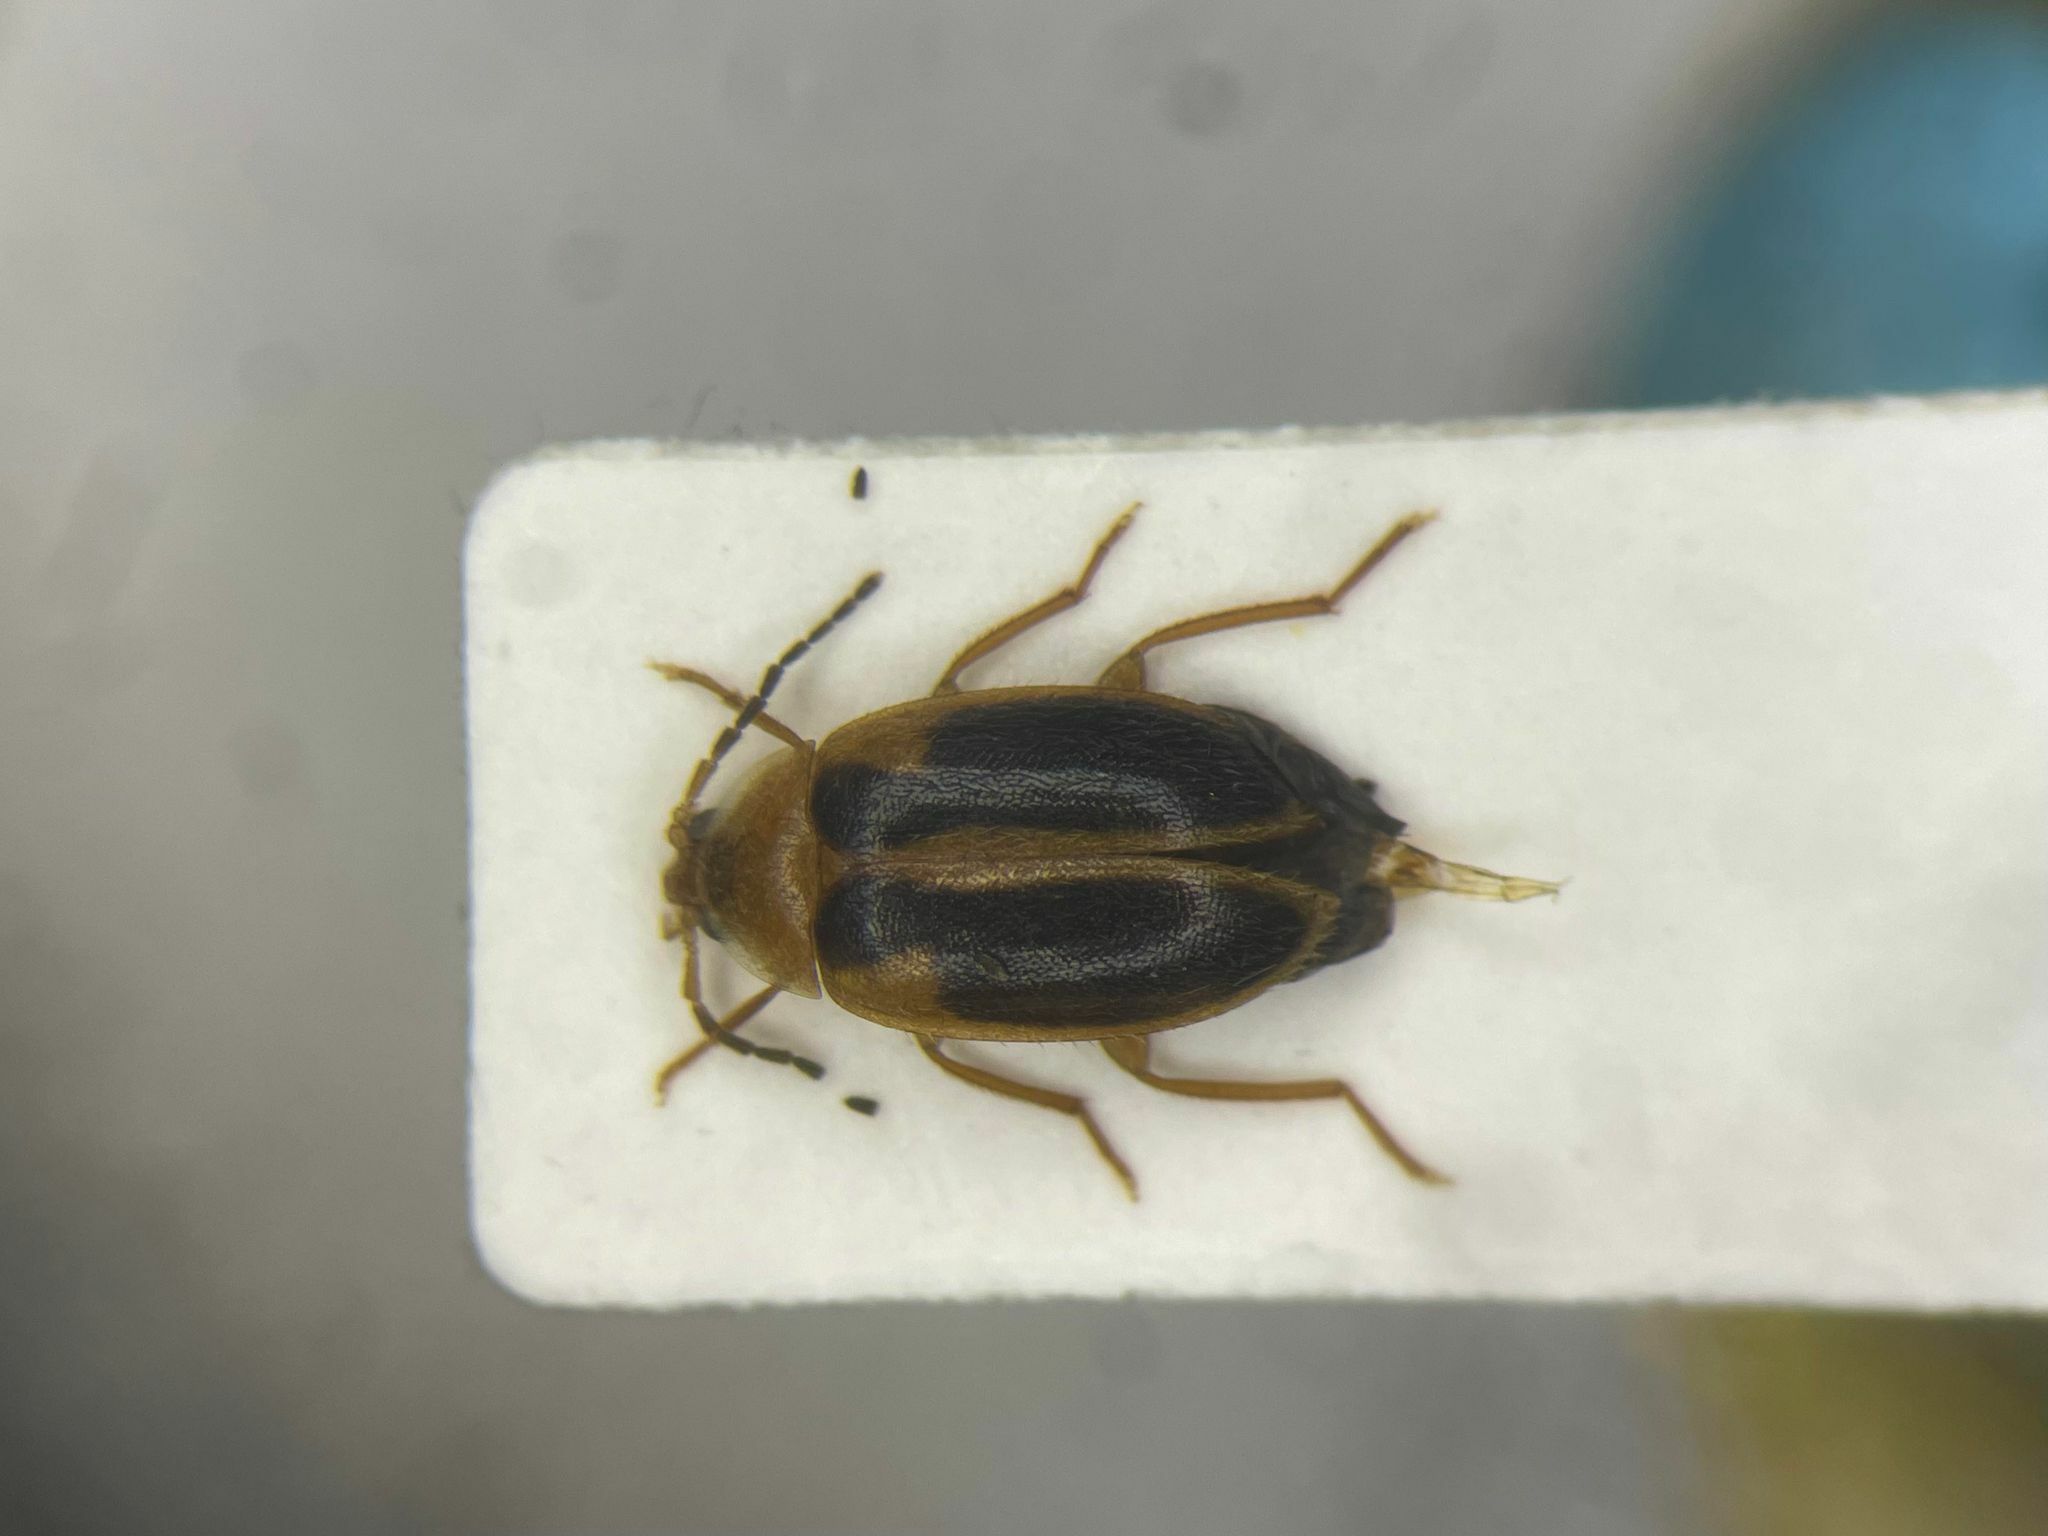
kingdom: Animalia
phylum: Arthropoda
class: Insecta
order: Coleoptera
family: Scirtidae
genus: Sacodes
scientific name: Sacodes pulchella
